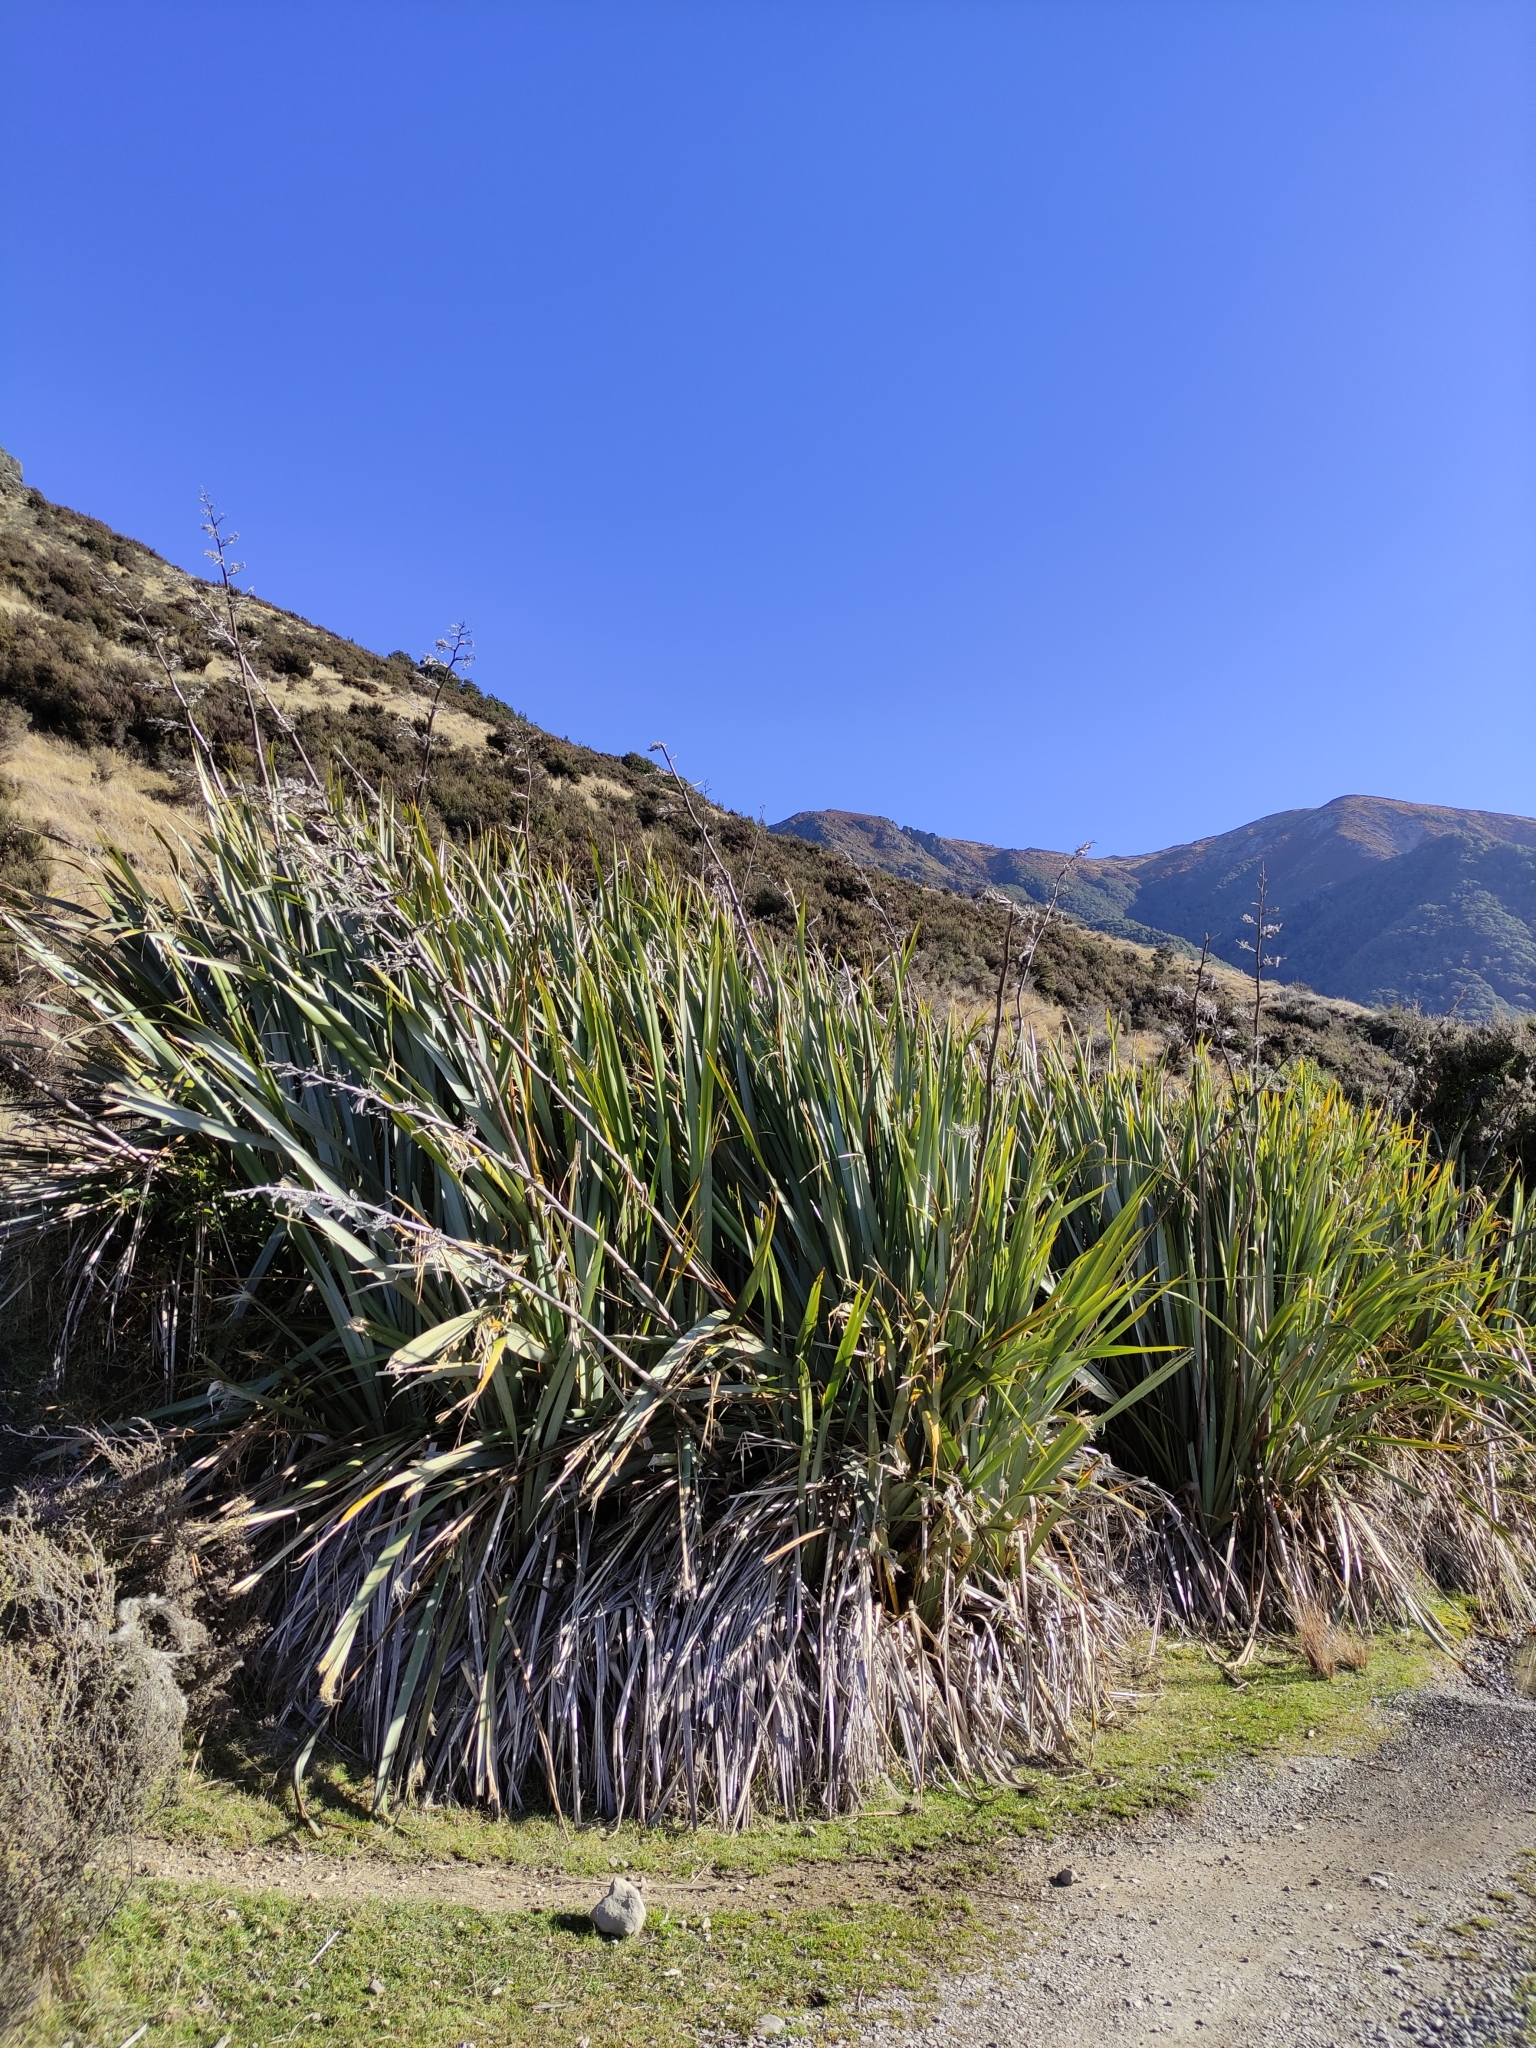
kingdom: Plantae
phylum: Tracheophyta
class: Liliopsida
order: Asparagales
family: Asphodelaceae
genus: Phormium
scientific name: Phormium tenax
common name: New zealand flax
